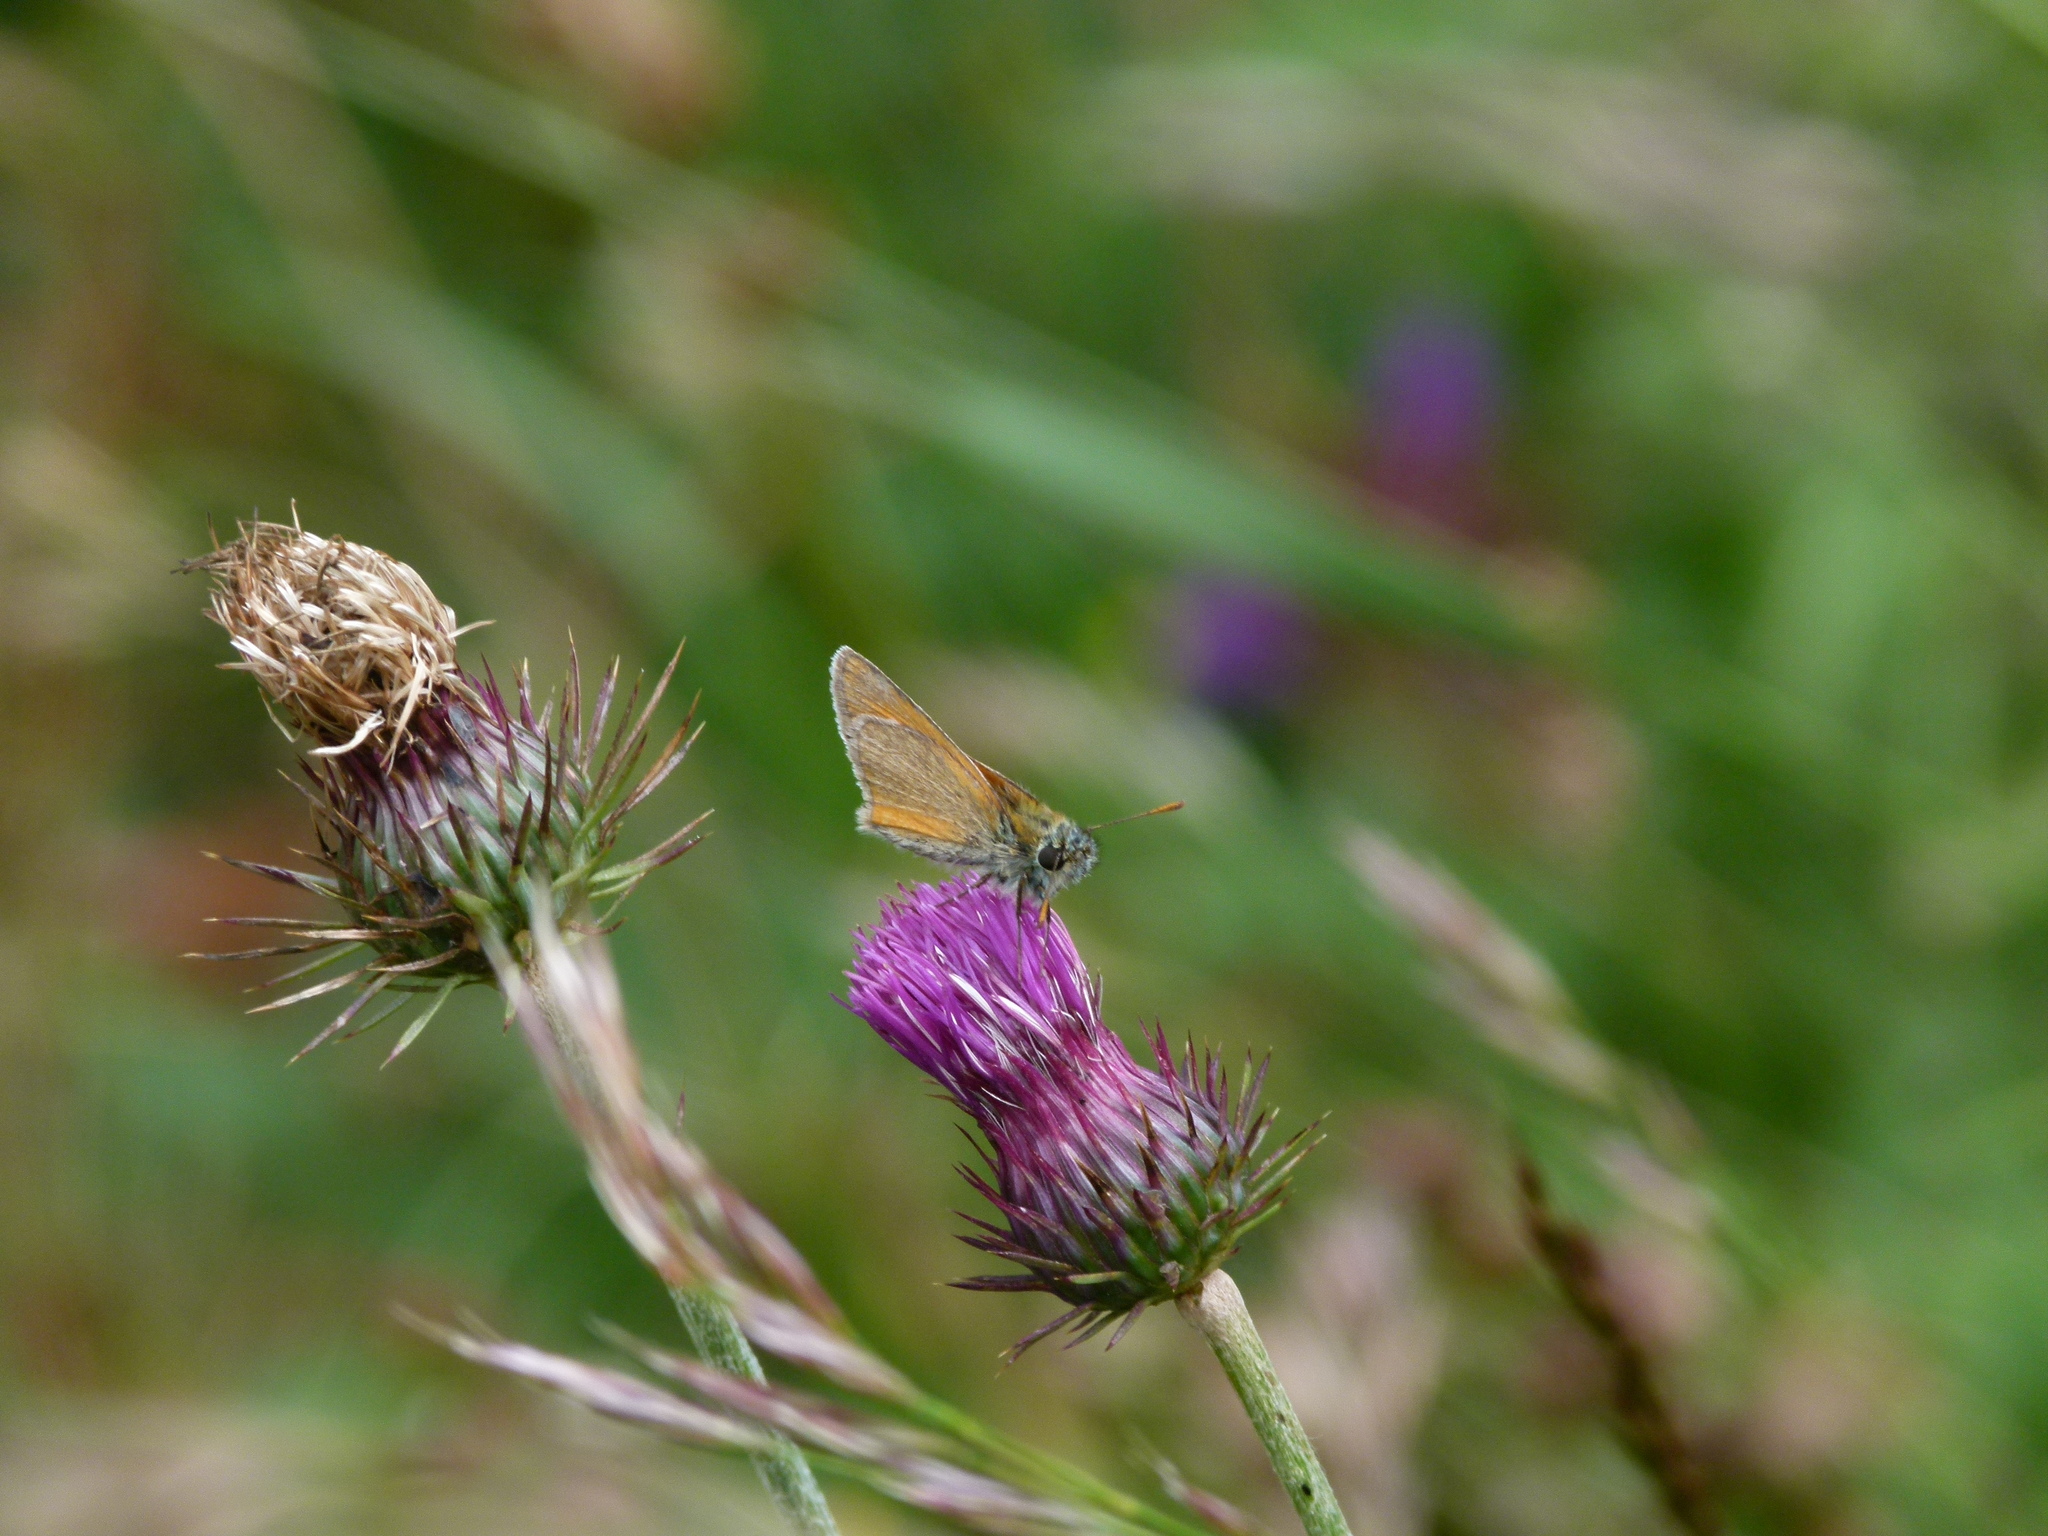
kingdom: Animalia
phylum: Arthropoda
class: Insecta
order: Lepidoptera
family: Hesperiidae
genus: Thymelicus
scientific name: Thymelicus sylvestris
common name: Small skipper
